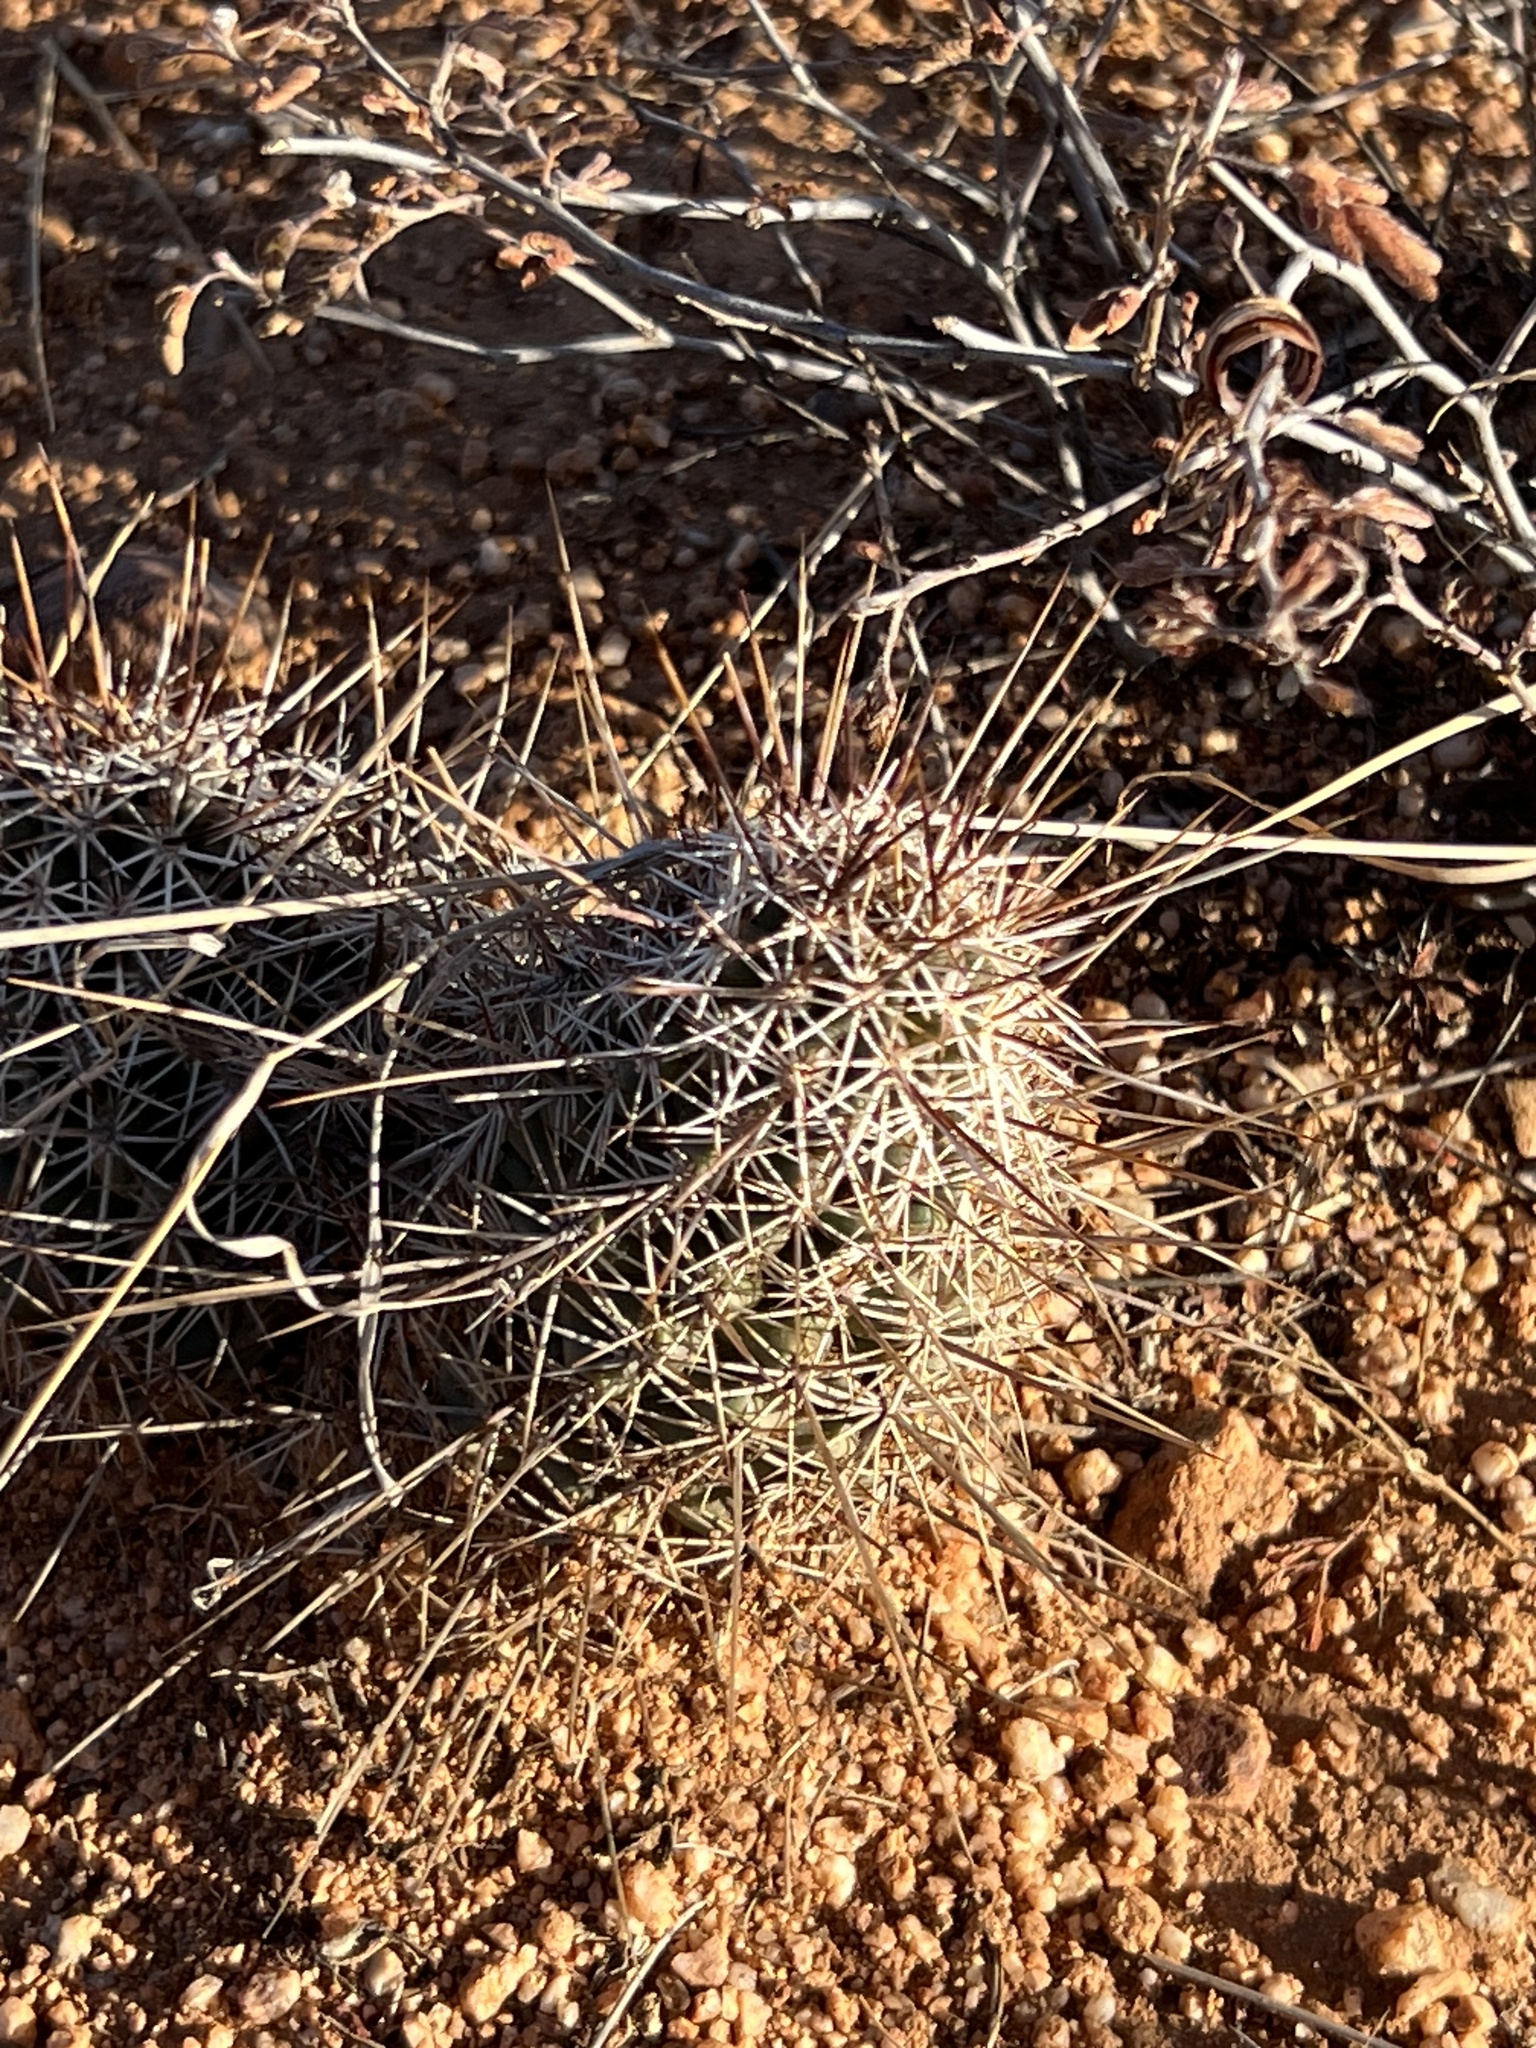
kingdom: Plantae
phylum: Tracheophyta
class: Magnoliopsida
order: Caryophyllales
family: Cactaceae
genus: Echinocereus
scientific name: Echinocereus fasciculatus
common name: Bundle hedgehog
